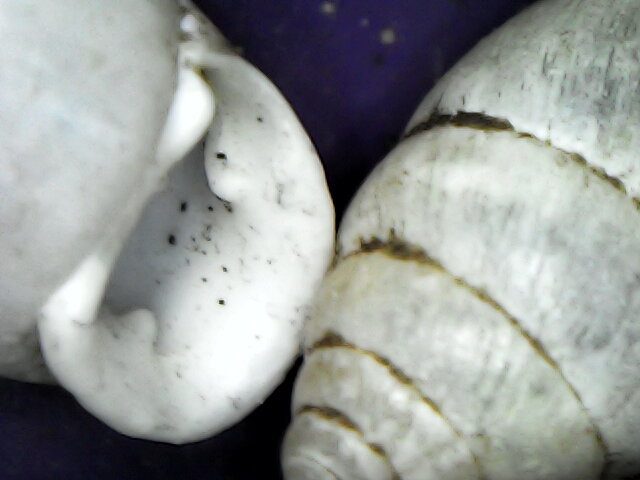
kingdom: Animalia
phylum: Mollusca
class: Gastropoda
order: Stylommatophora
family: Enidae
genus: Chondrula
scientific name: Chondrula tridens
